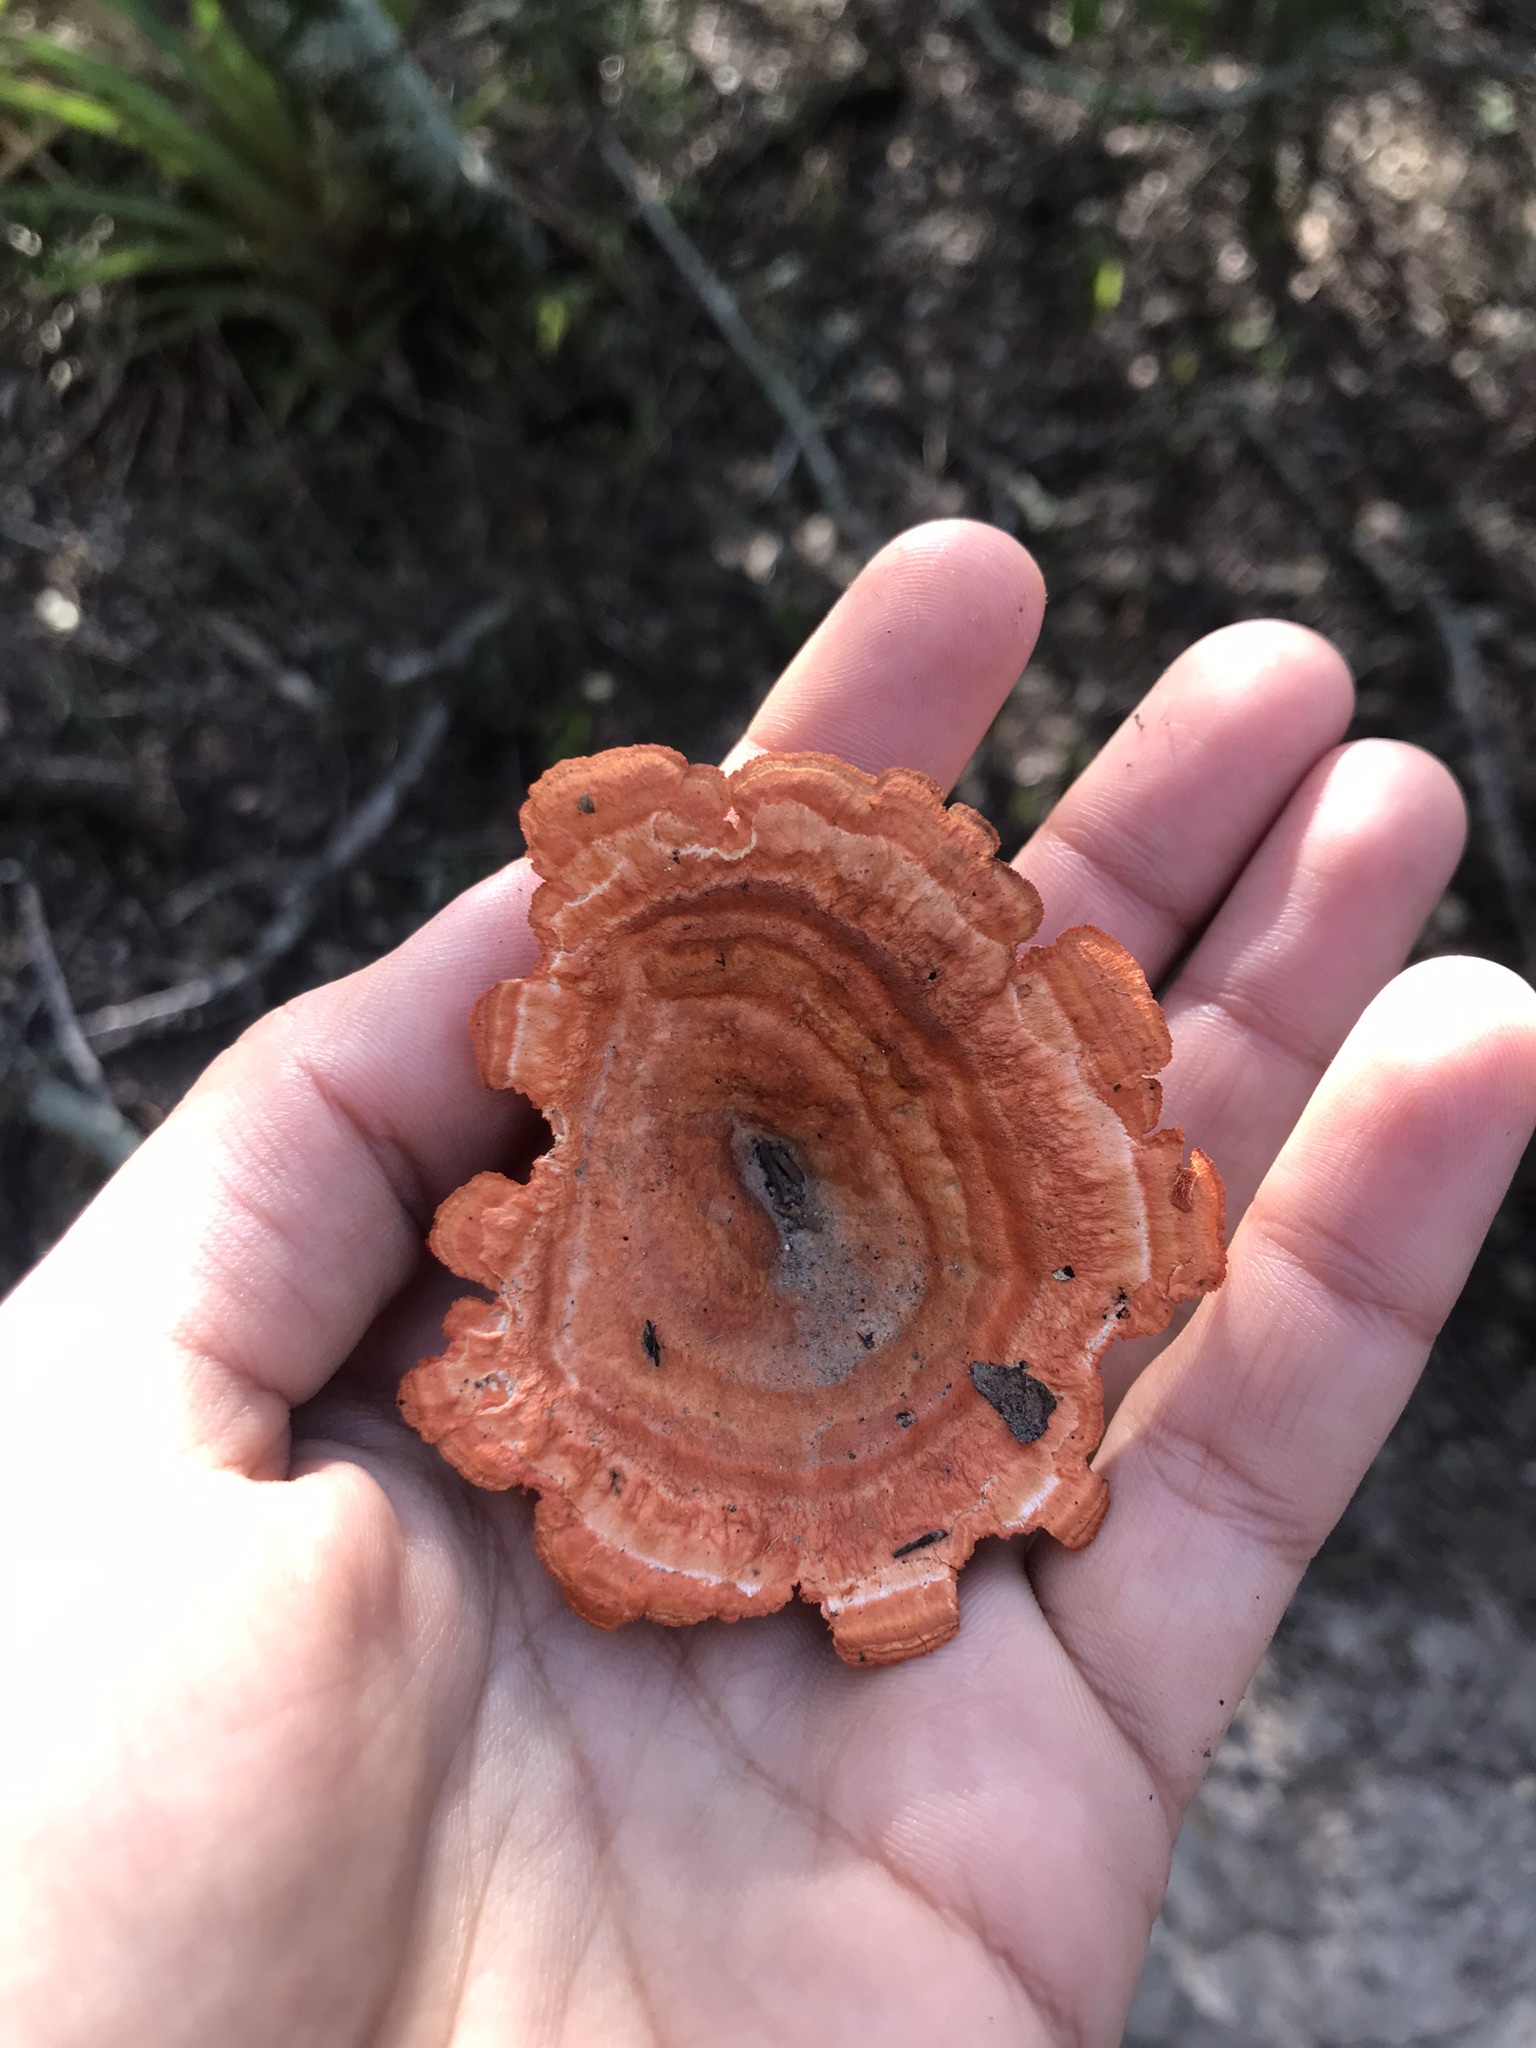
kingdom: Fungi
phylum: Basidiomycota
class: Agaricomycetes
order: Polyporales
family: Polyporaceae
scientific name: Polyporaceae
